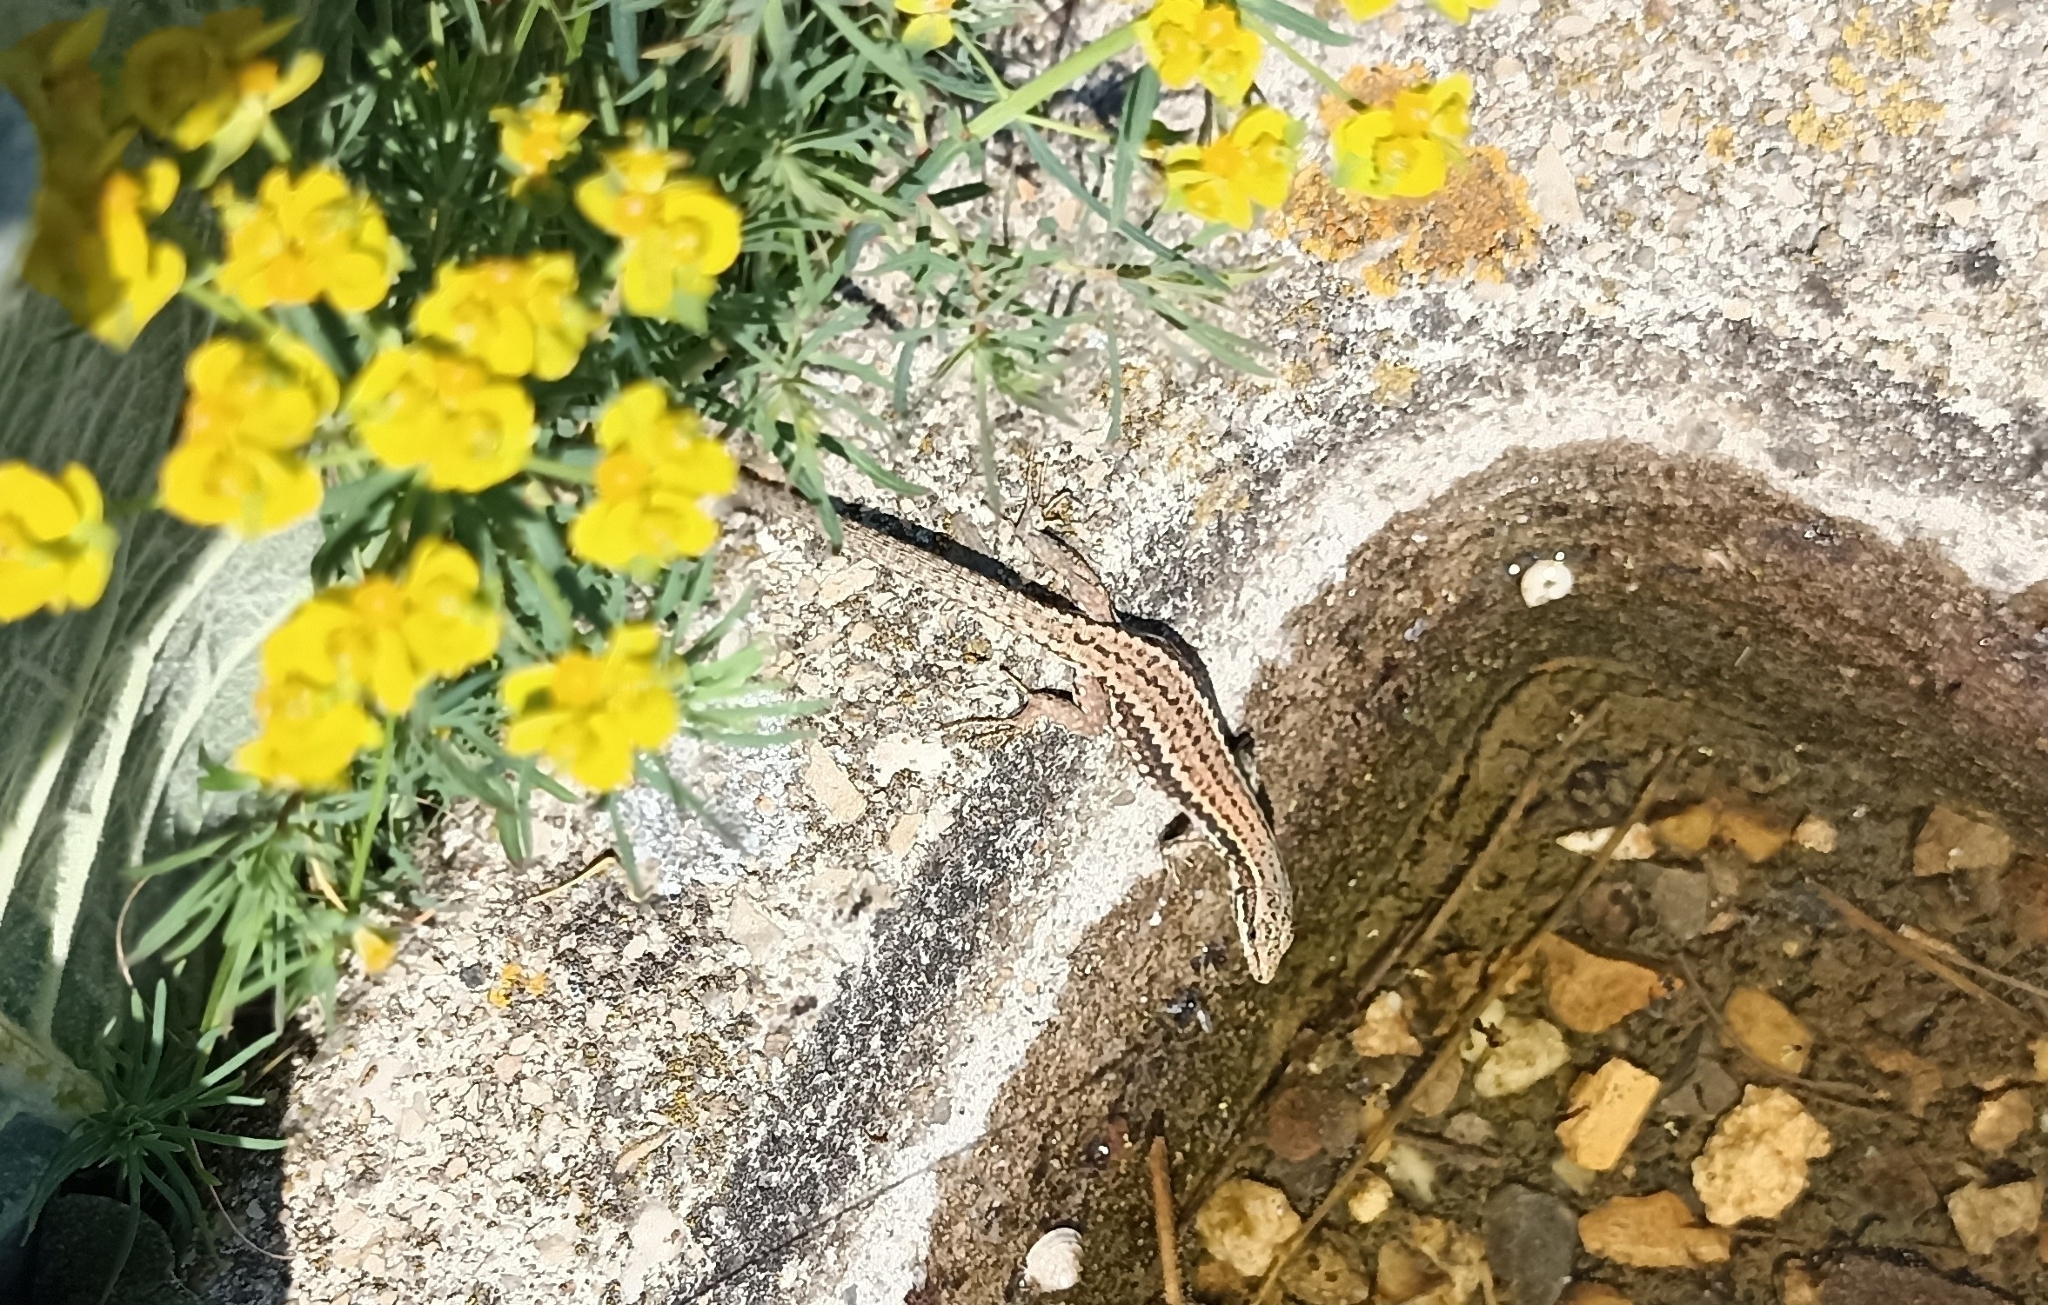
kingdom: Animalia
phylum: Chordata
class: Squamata
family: Lacertidae
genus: Podarcis
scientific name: Podarcis muralis
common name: Common wall lizard
